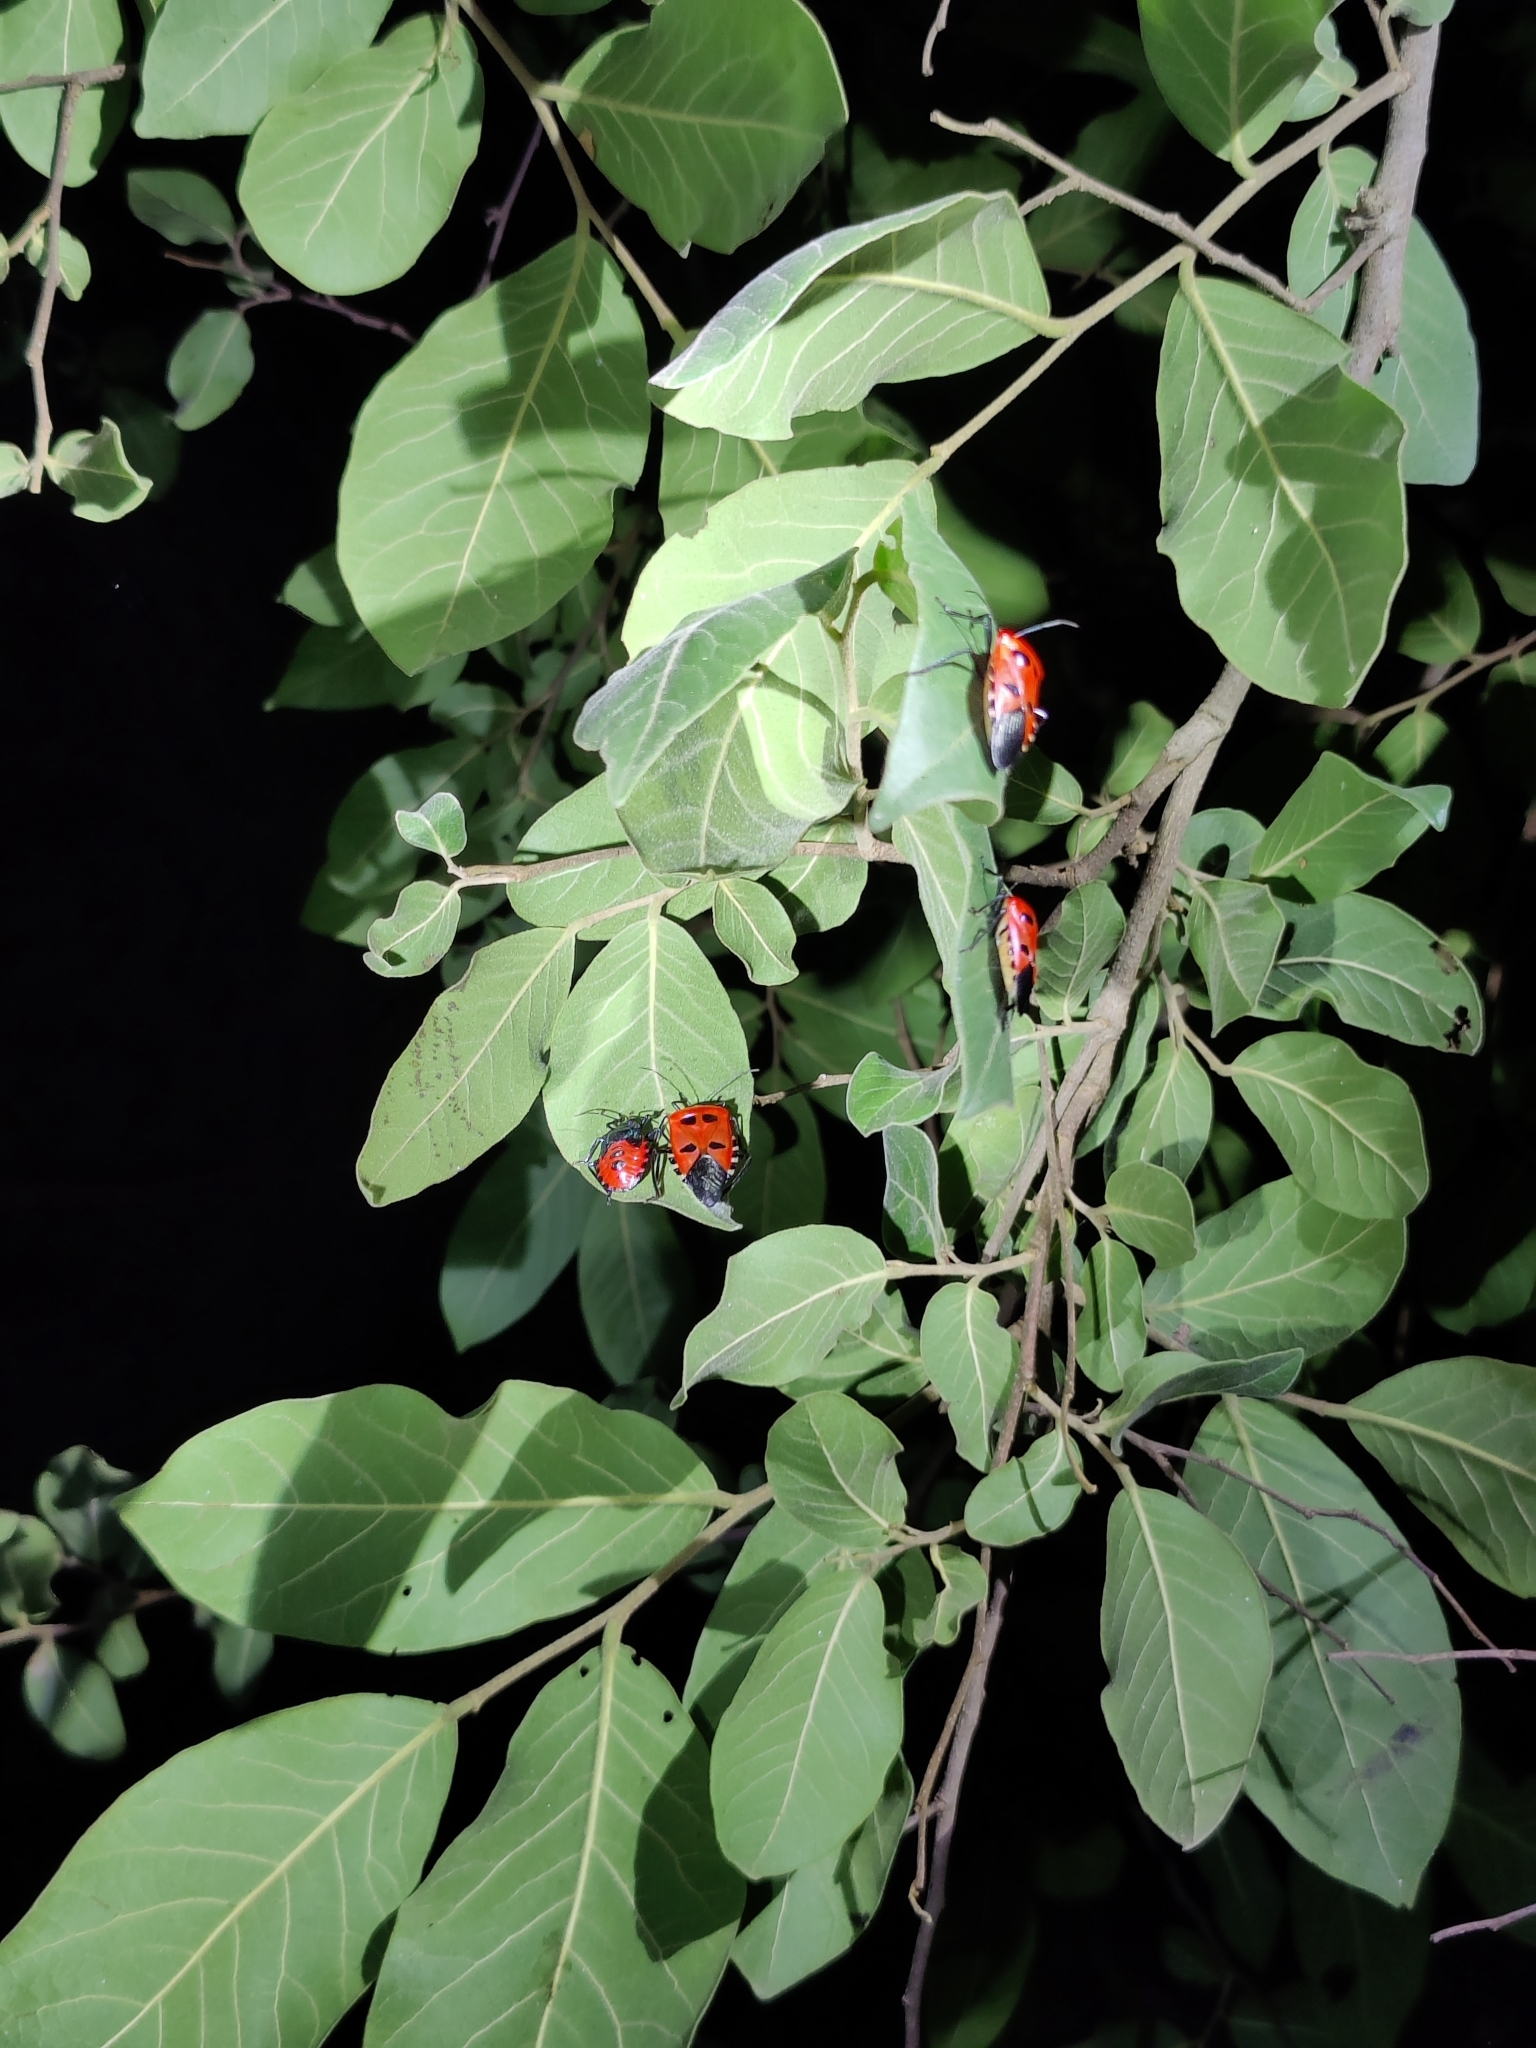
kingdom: Animalia
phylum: Arthropoda
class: Insecta
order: Hemiptera
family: Pentatomidae
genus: Catacanthus
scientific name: Catacanthus incarnatus
